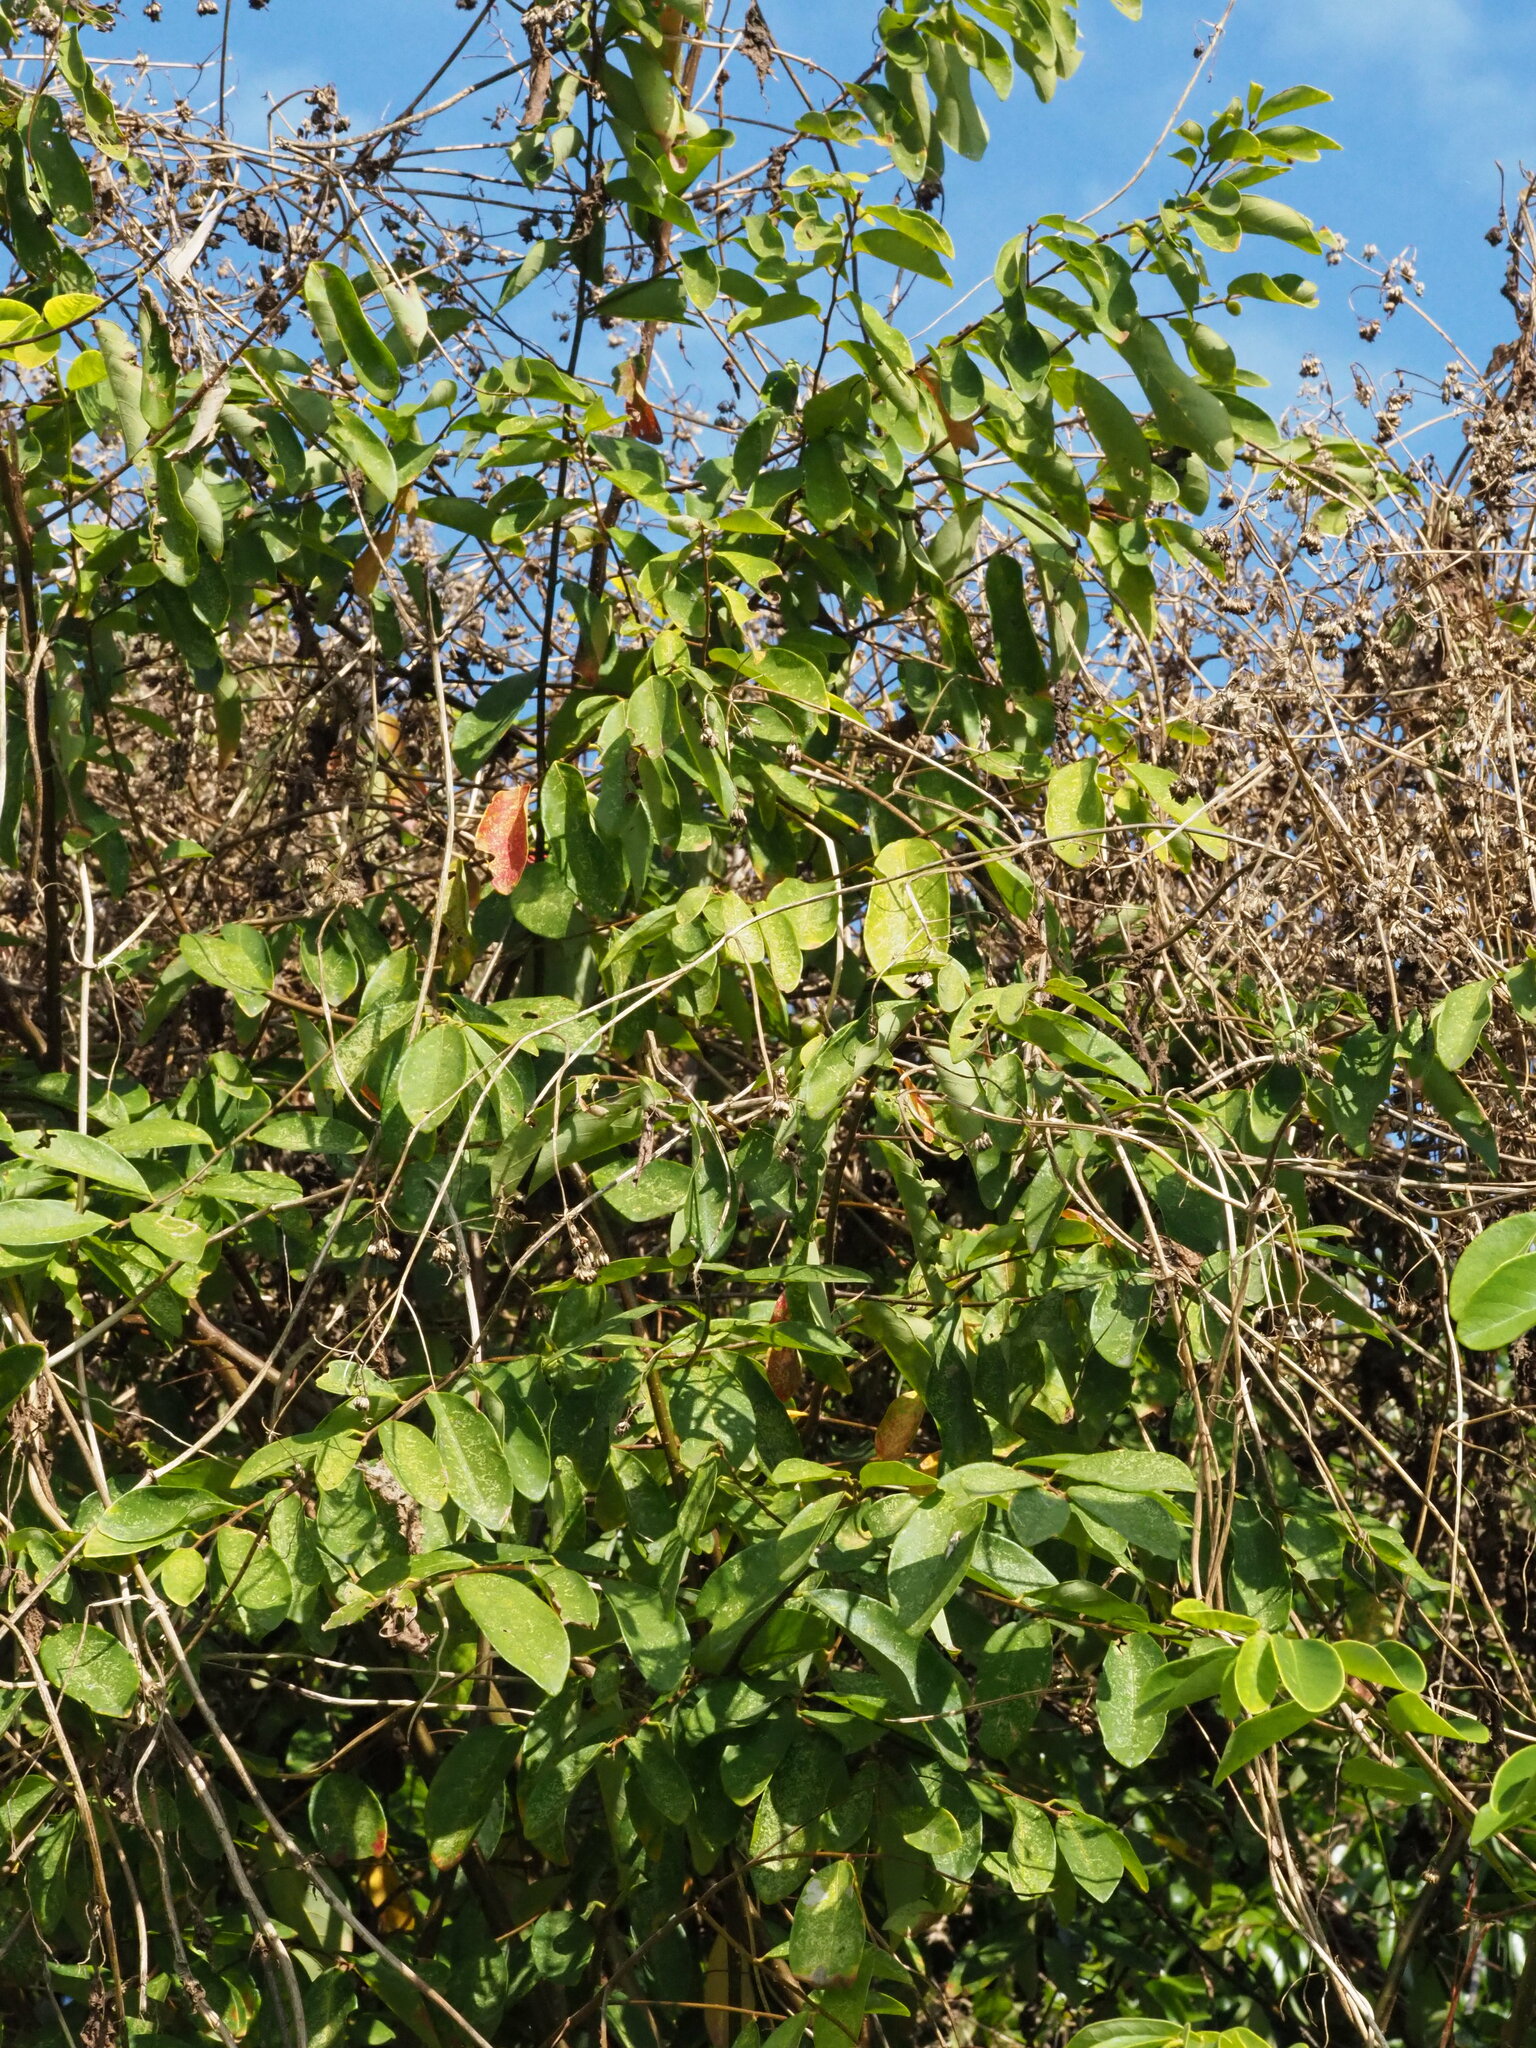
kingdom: Plantae
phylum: Tracheophyta
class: Magnoliopsida
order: Malpighiales
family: Phyllanthaceae
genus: Bridelia
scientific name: Bridelia tomentosa
